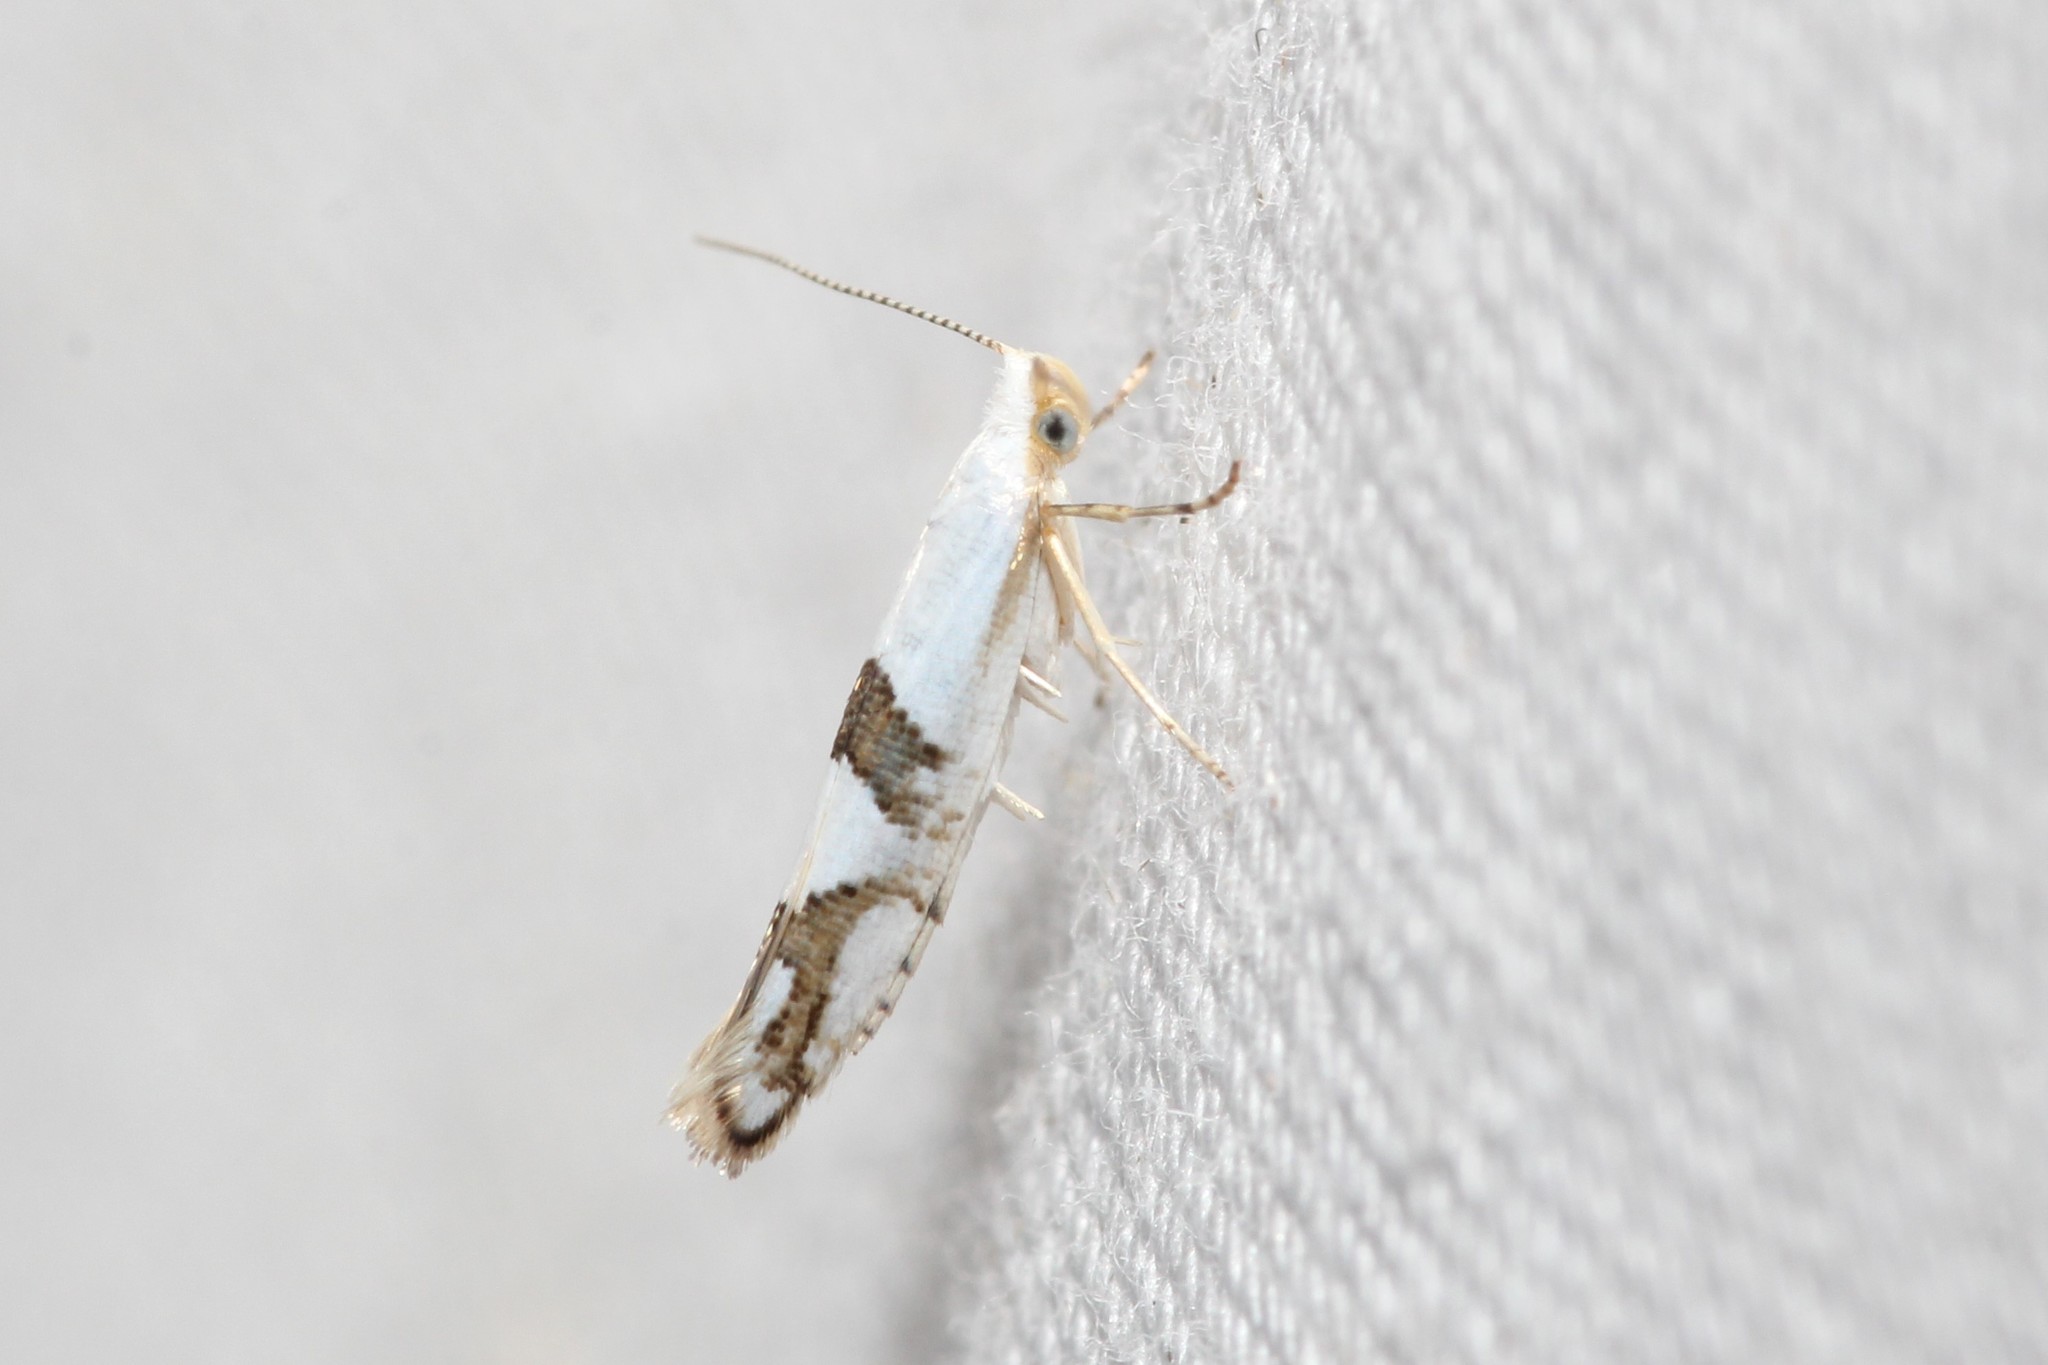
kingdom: Animalia
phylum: Arthropoda
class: Insecta
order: Lepidoptera
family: Argyresthiidae
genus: Argyresthia
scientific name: Argyresthia oreasella
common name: Cherry shoot borer moth
